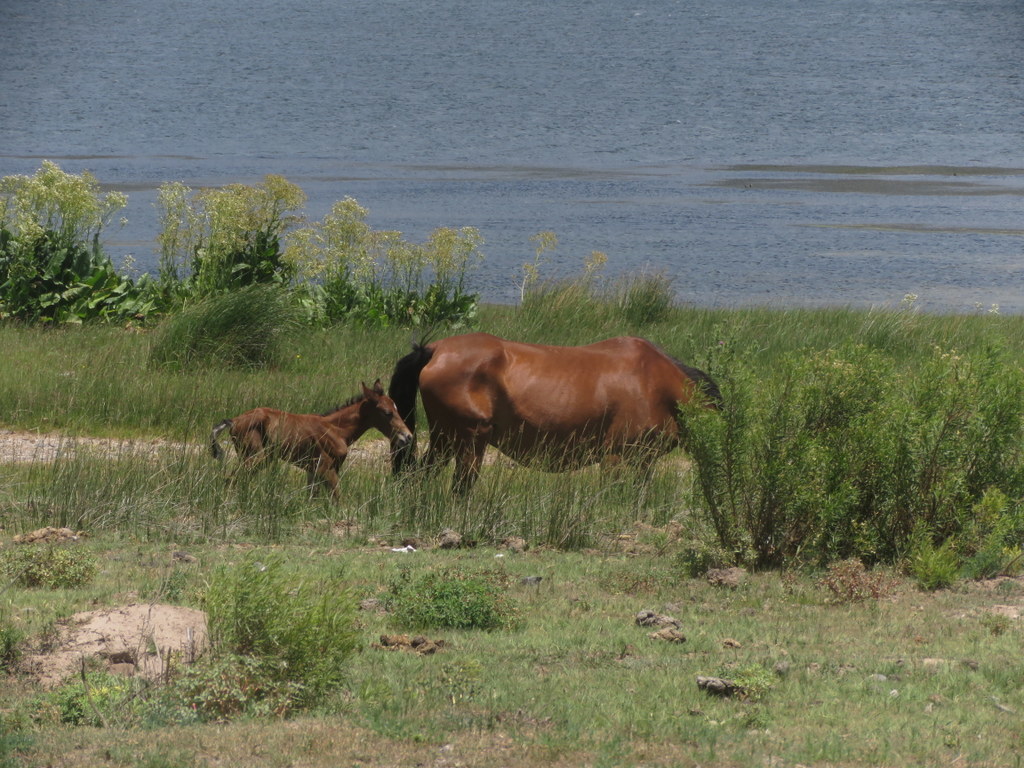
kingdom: Animalia
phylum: Chordata
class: Mammalia
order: Perissodactyla
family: Equidae
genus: Equus
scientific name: Equus caballus
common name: Horse
